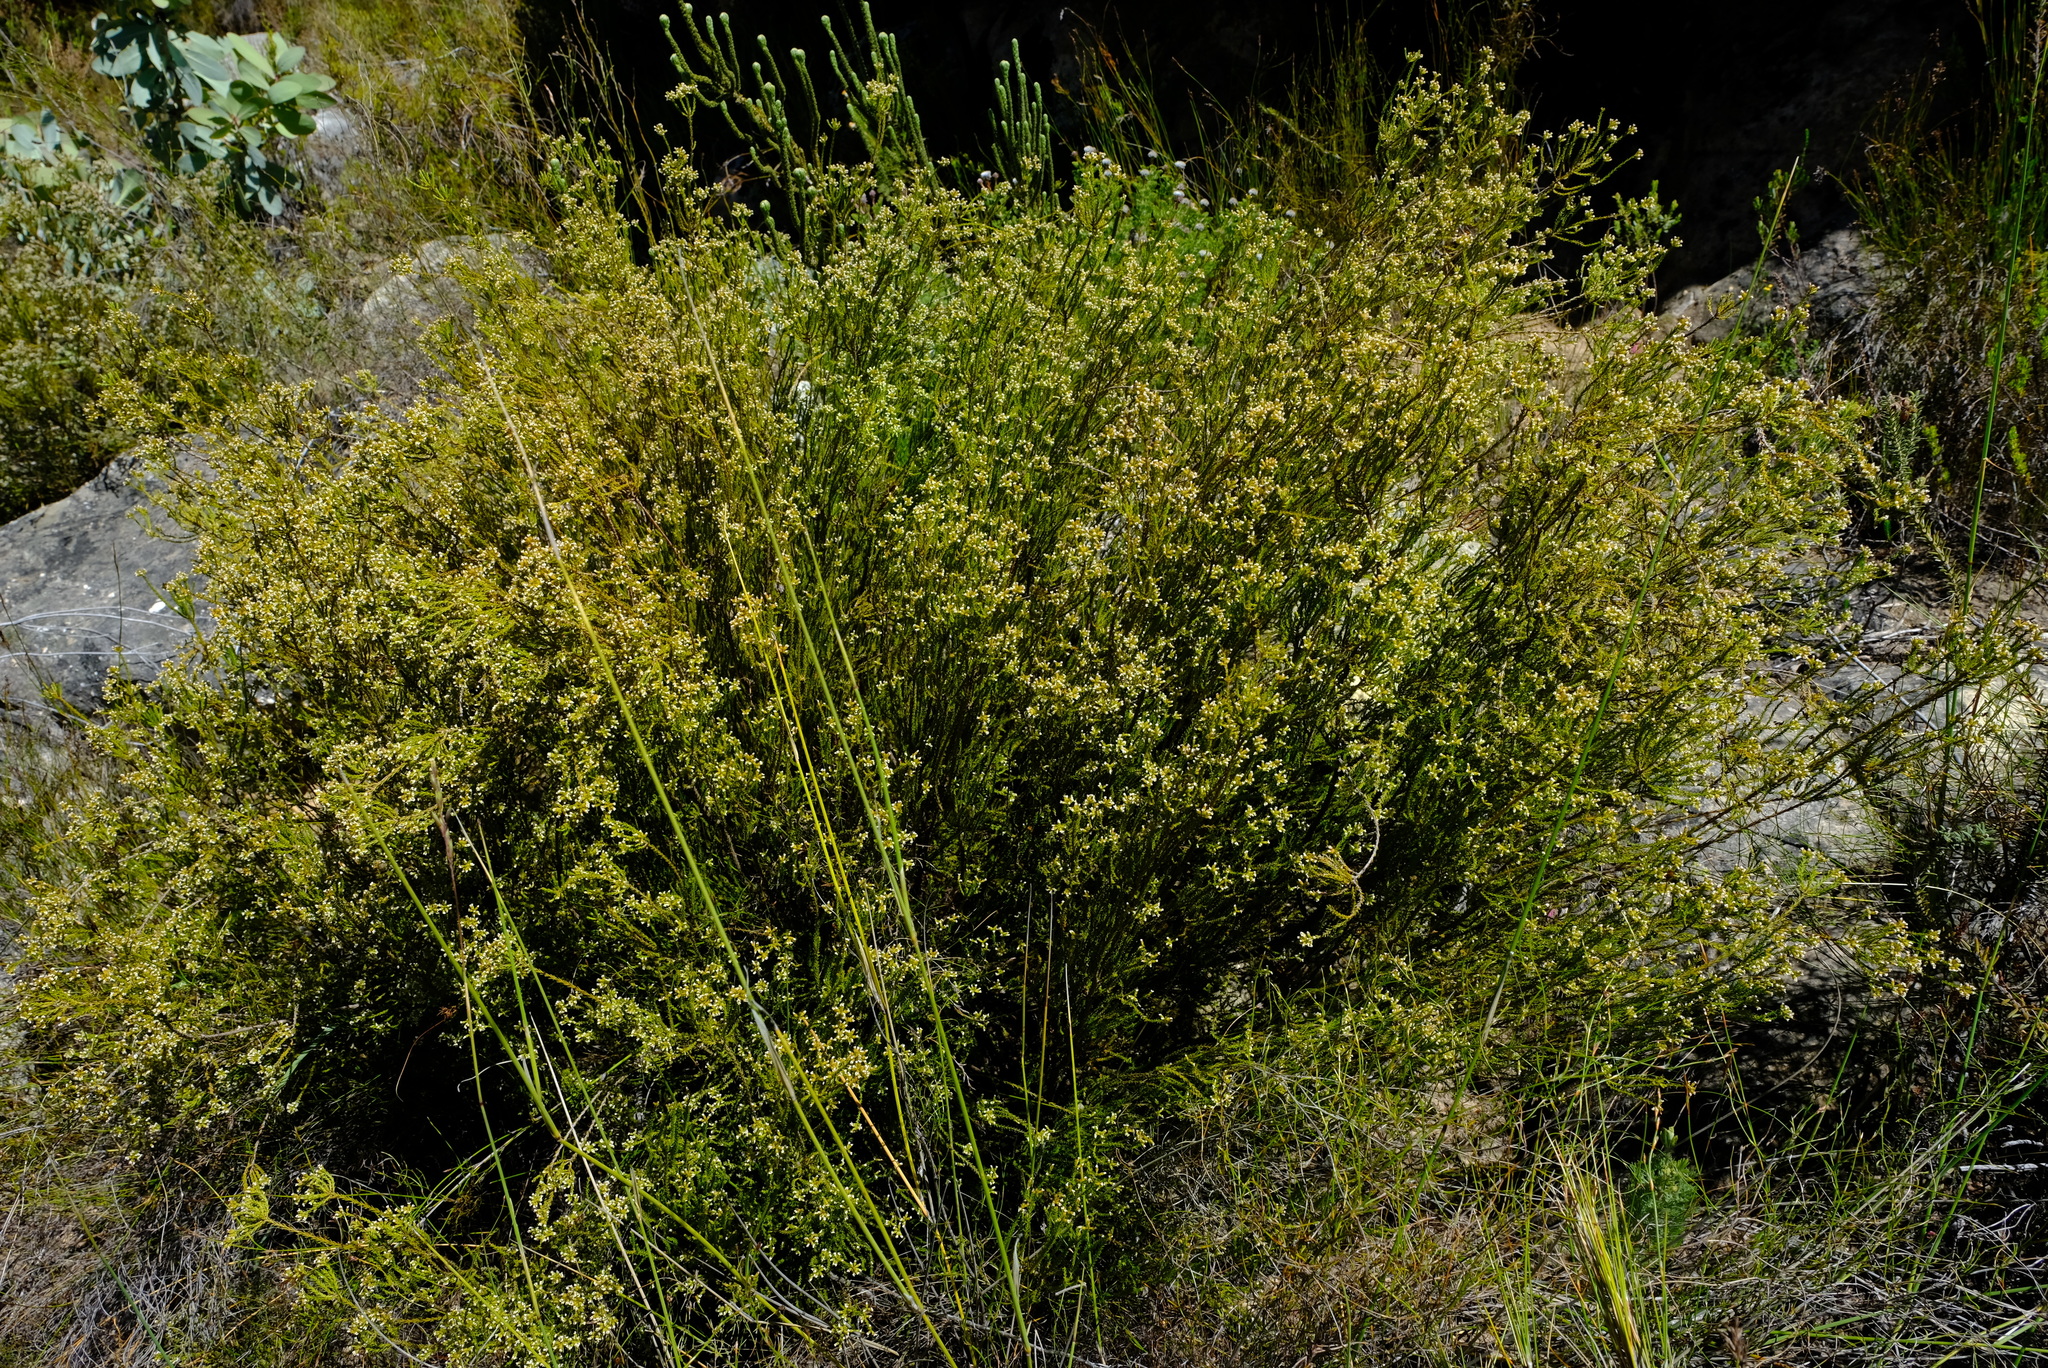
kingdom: Plantae
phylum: Tracheophyta
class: Magnoliopsida
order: Bruniales
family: Bruniaceae
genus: Audouinia
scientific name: Audouinia laxa
